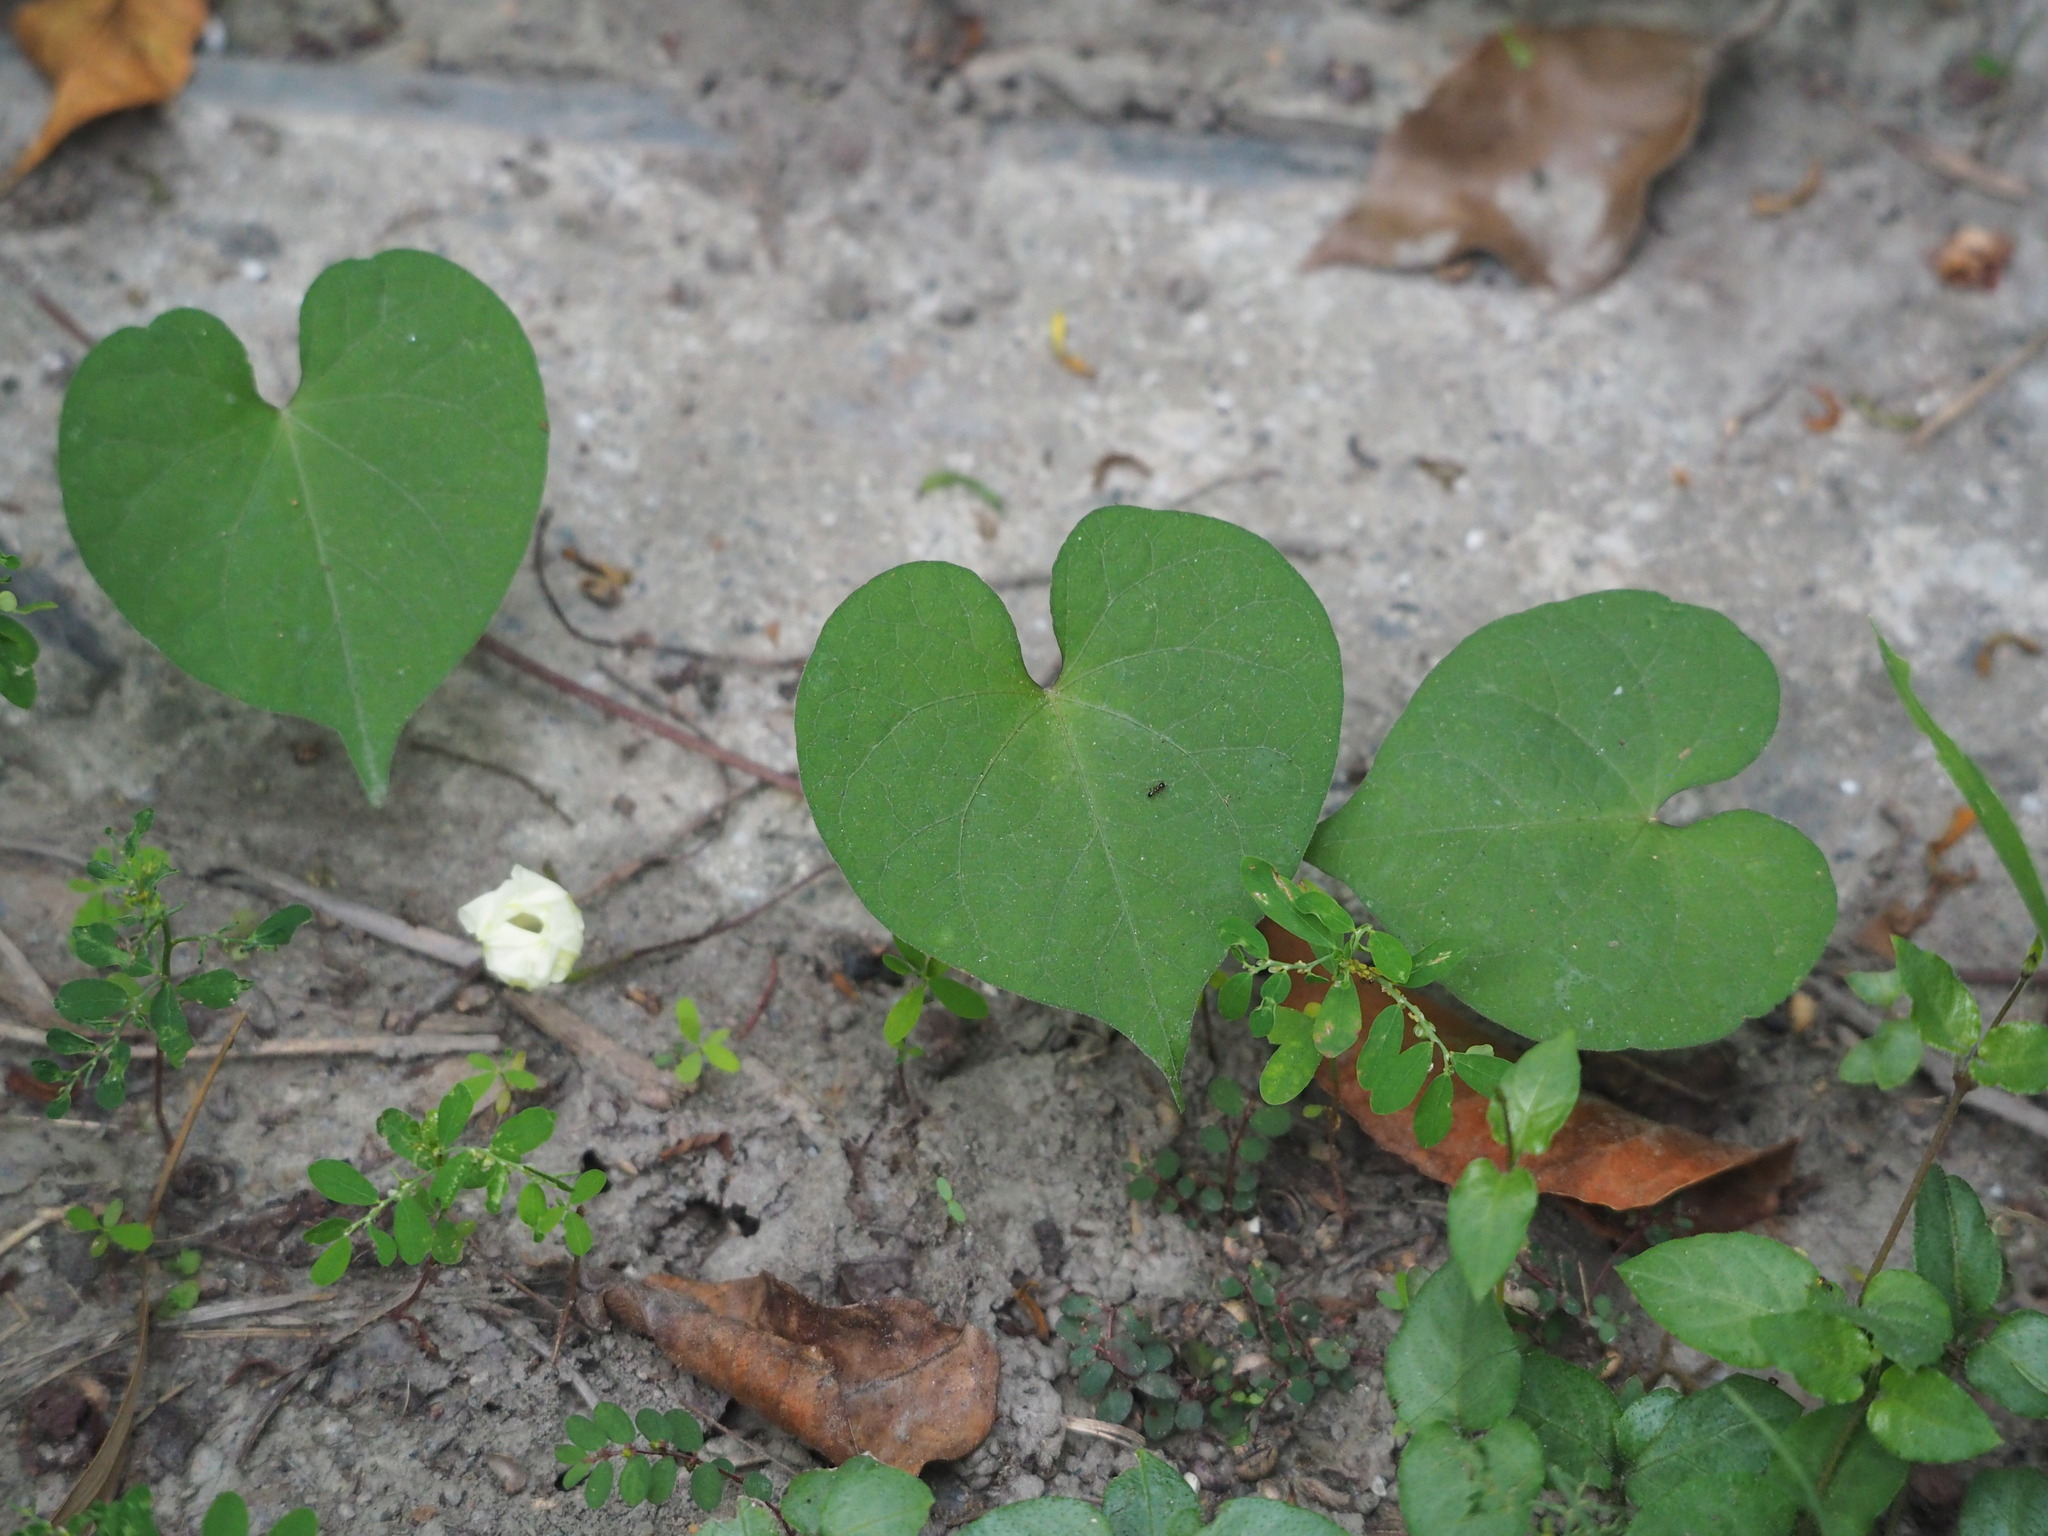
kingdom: Plantae
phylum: Tracheophyta
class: Magnoliopsida
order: Solanales
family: Convolvulaceae
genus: Ipomoea
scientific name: Ipomoea obscura
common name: Obscure morning-glory
